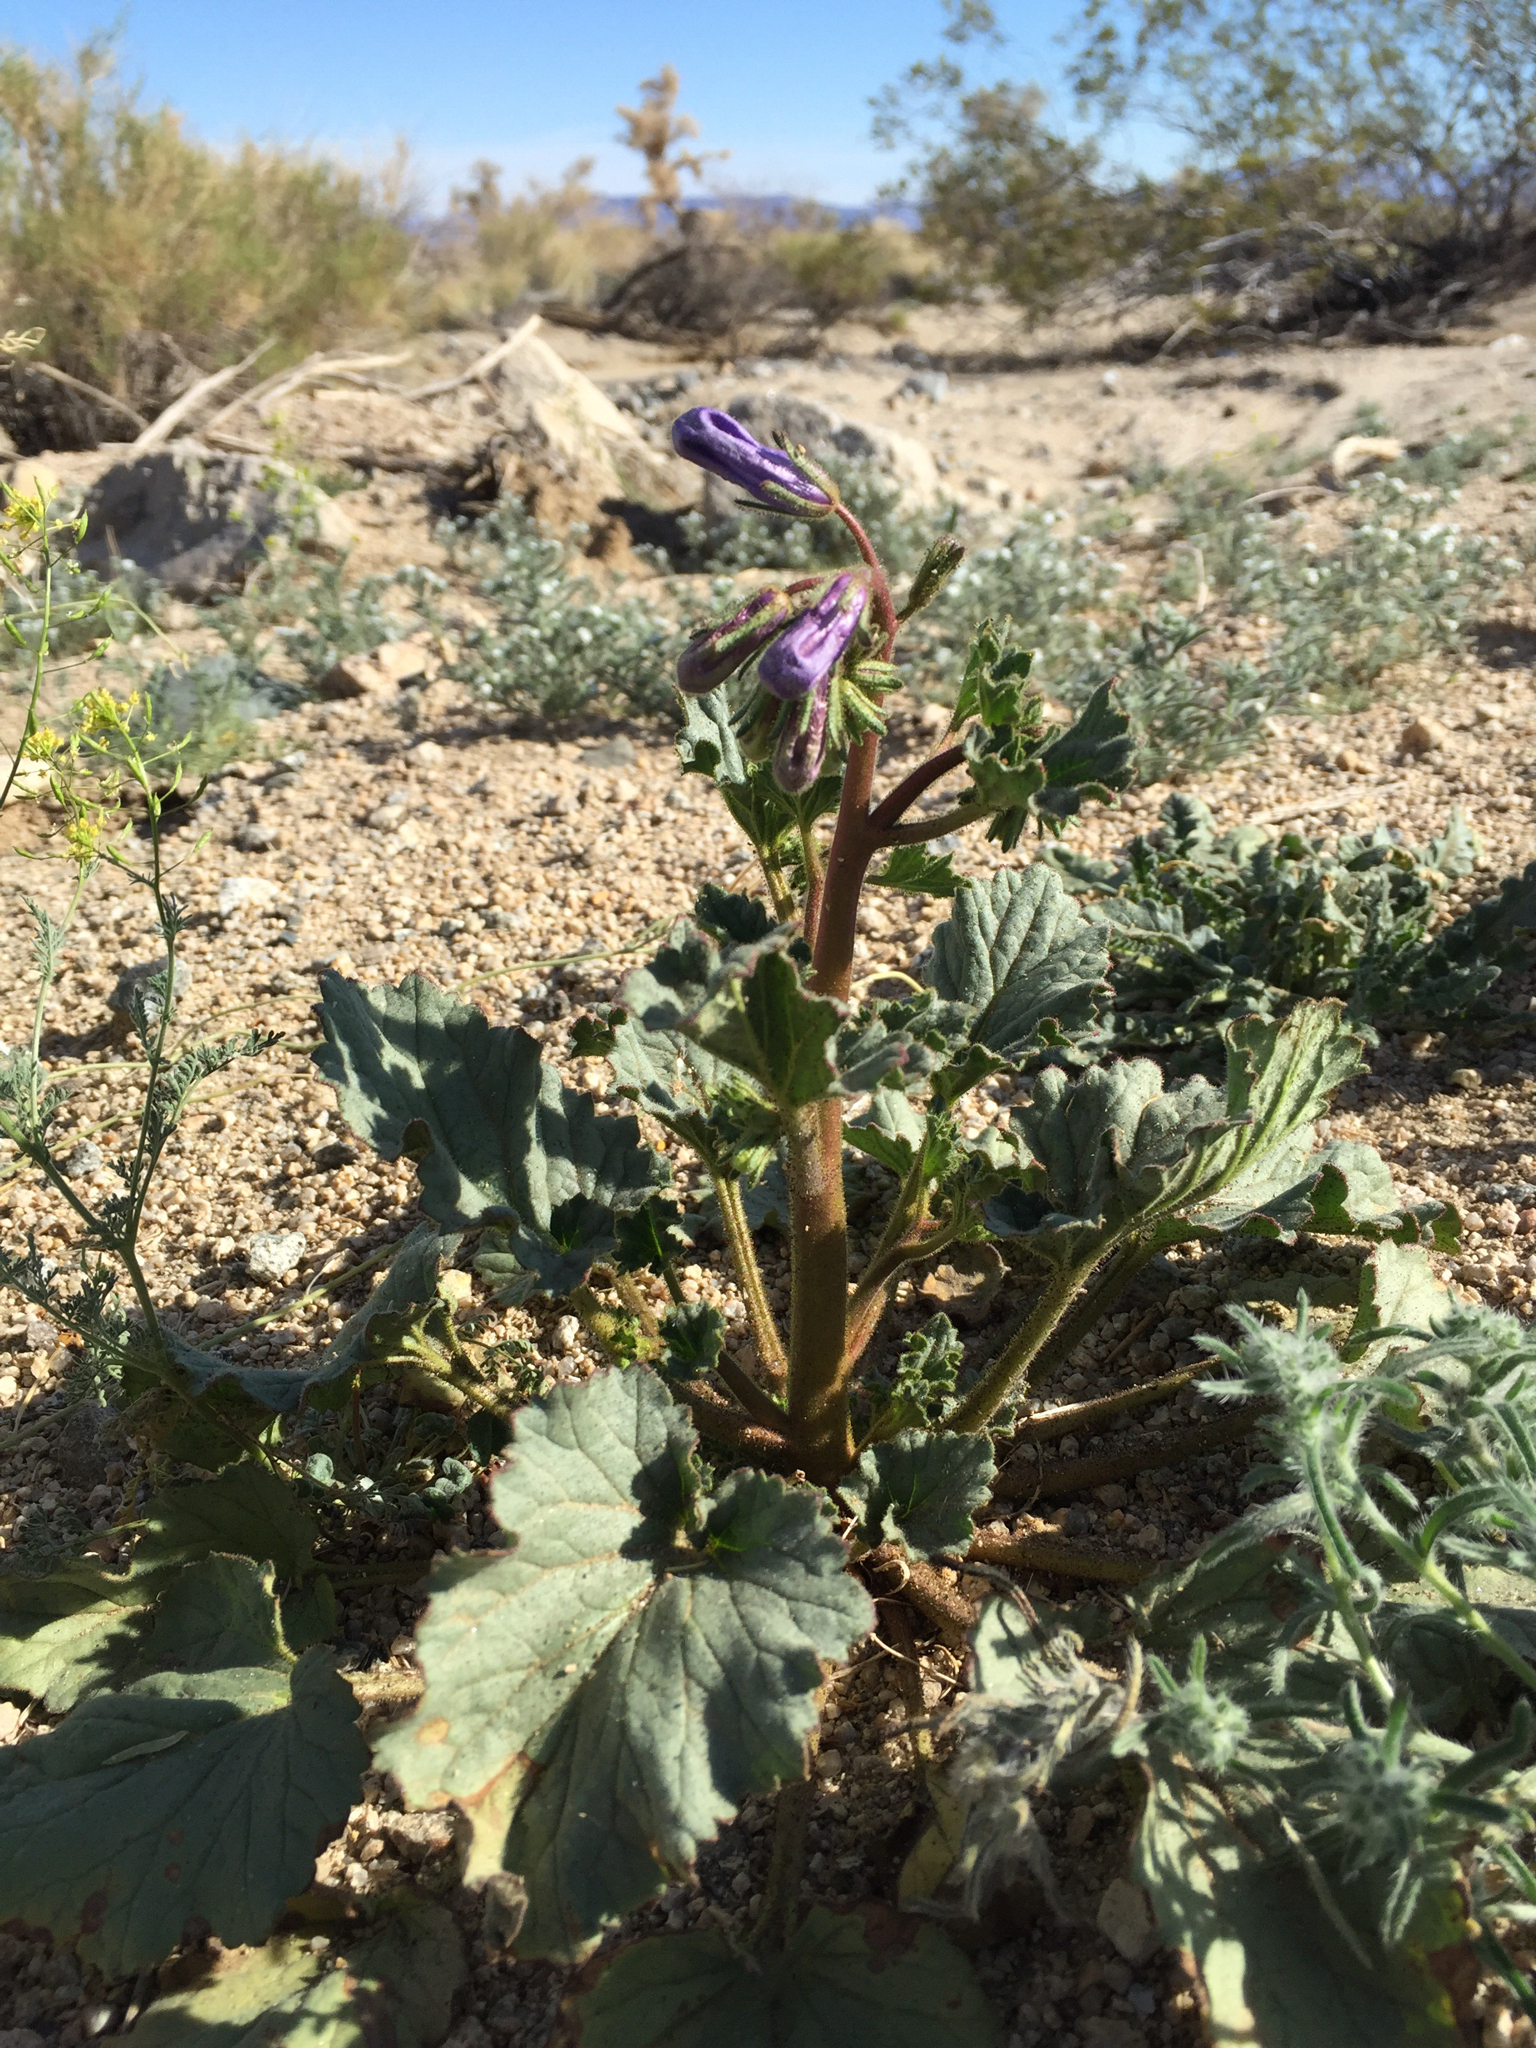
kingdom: Plantae
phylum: Tracheophyta
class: Magnoliopsida
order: Boraginales
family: Hydrophyllaceae
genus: Phacelia
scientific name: Phacelia campanularia
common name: California bluebell
